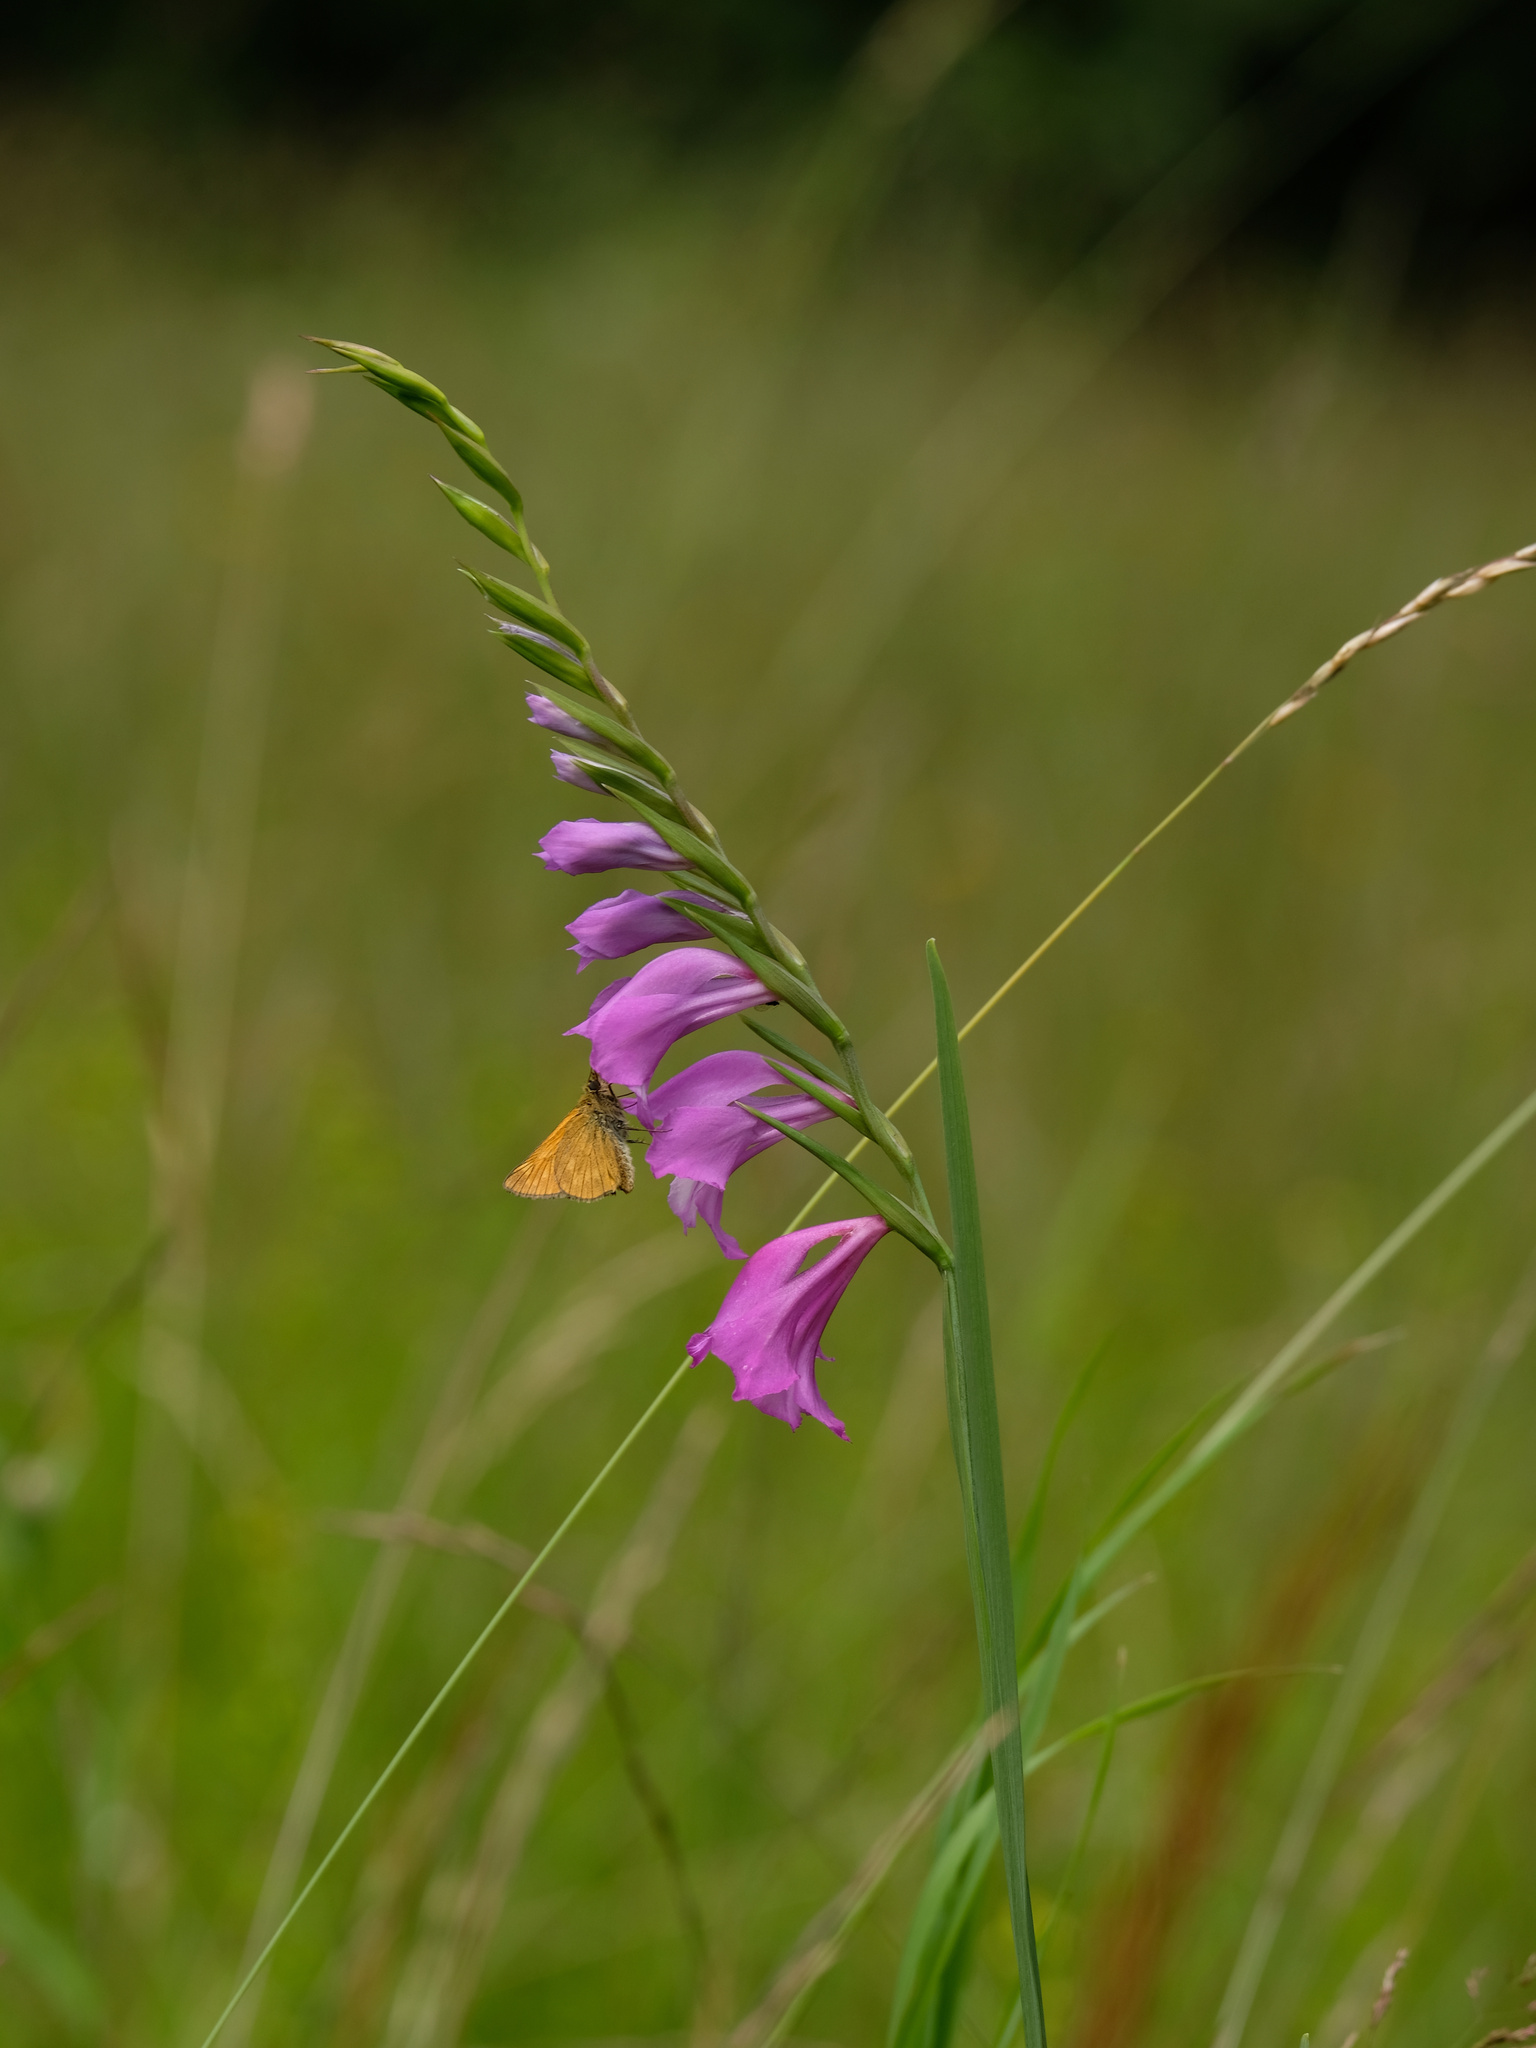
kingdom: Plantae
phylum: Tracheophyta
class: Liliopsida
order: Asparagales
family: Iridaceae
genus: Gladiolus
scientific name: Gladiolus imbricatus
